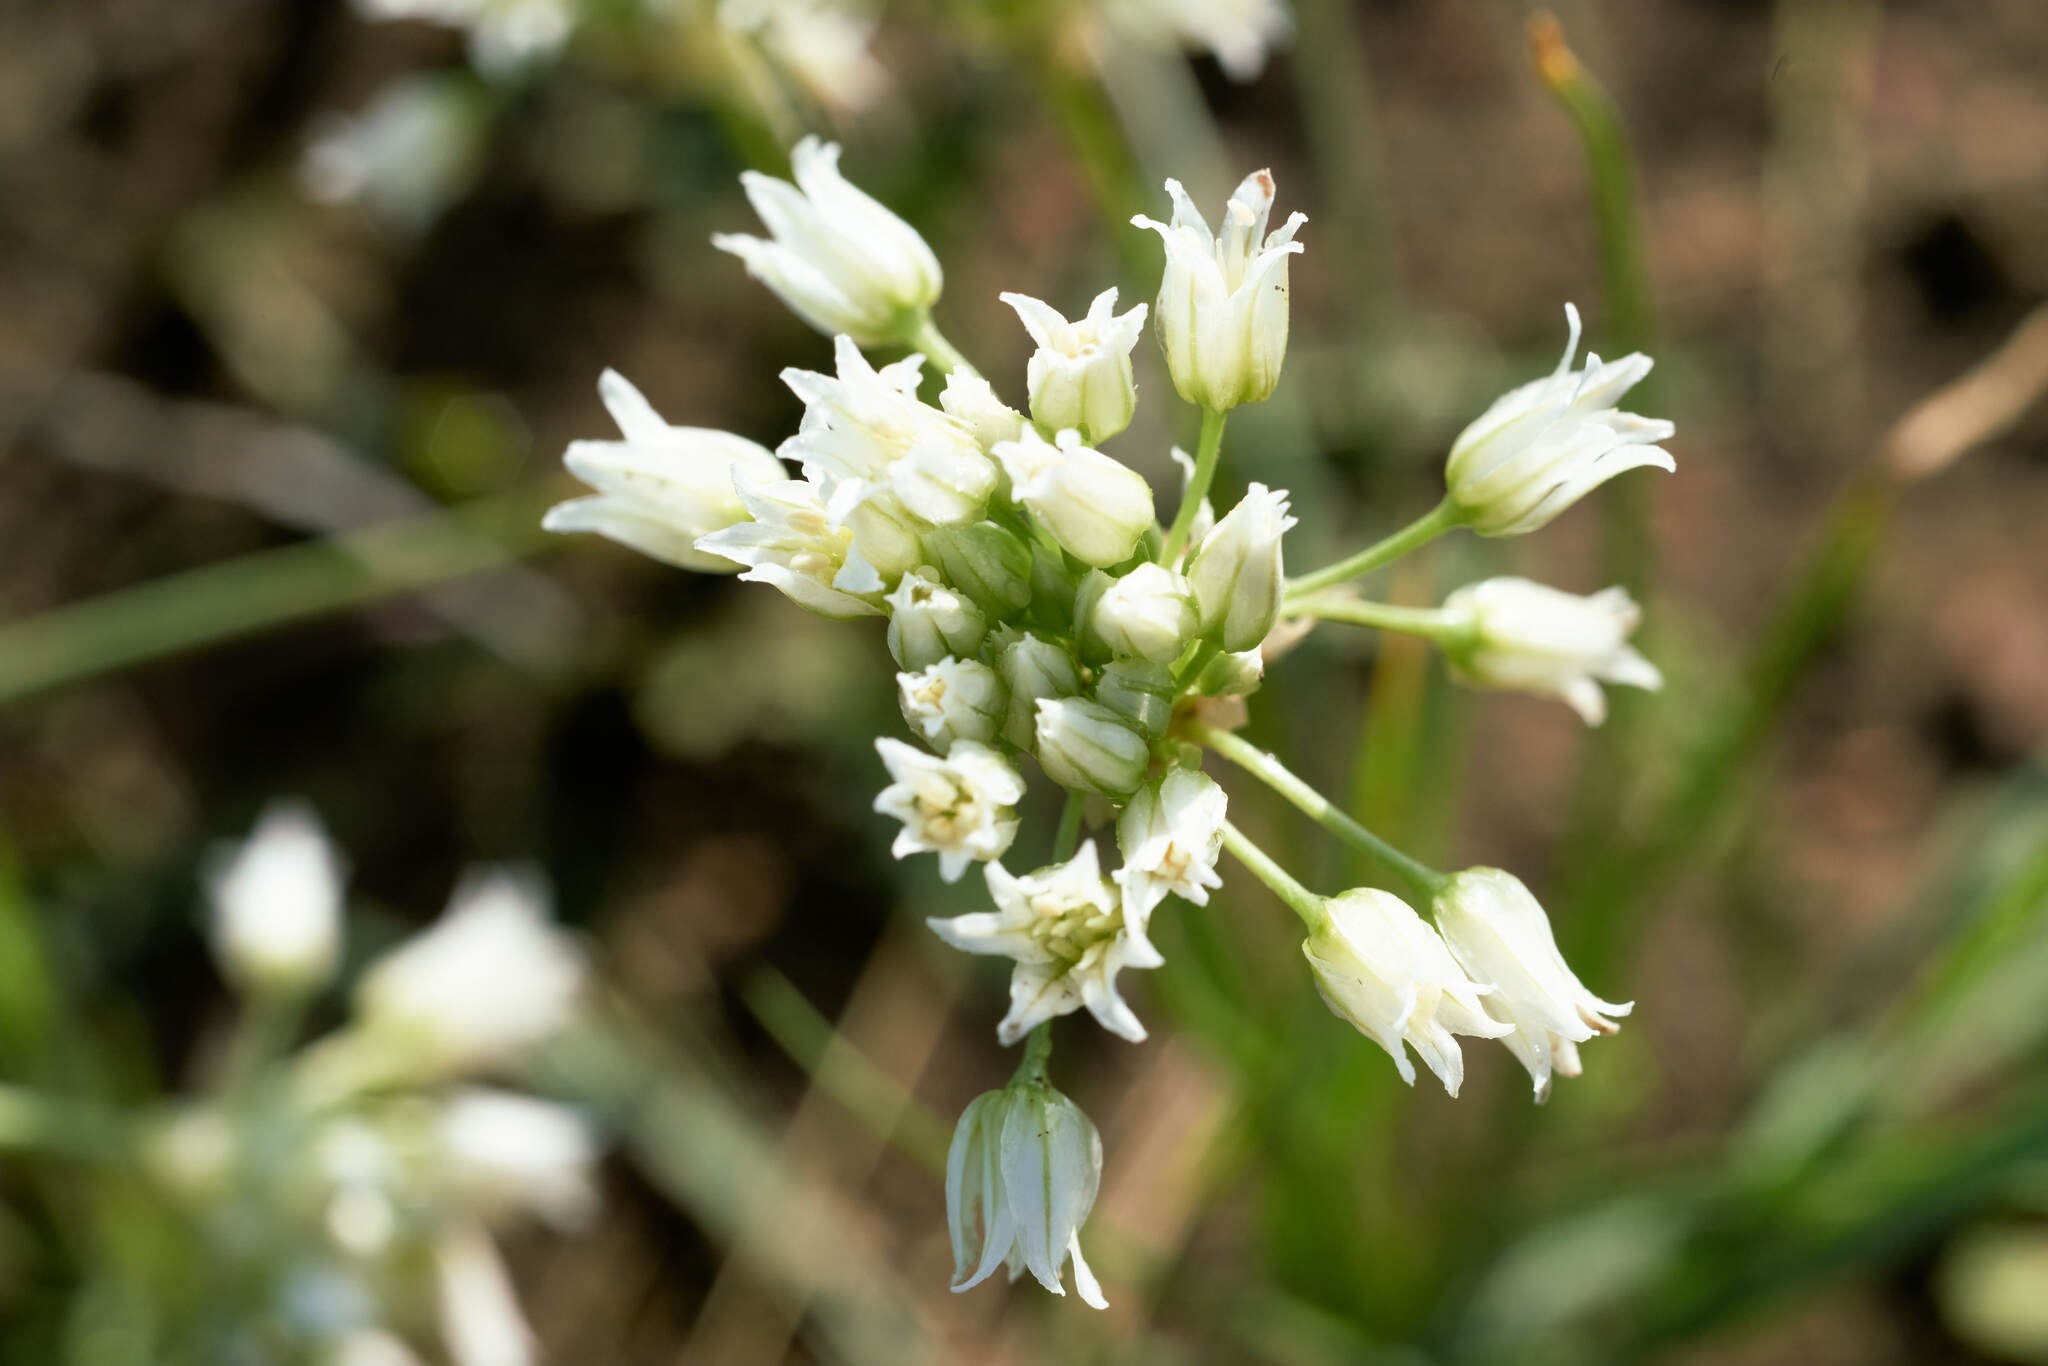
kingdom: Plantae
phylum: Tracheophyta
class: Liliopsida
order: Asparagales
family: Amaryllidaceae
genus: Allium
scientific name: Allium textile
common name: Prairie onion
